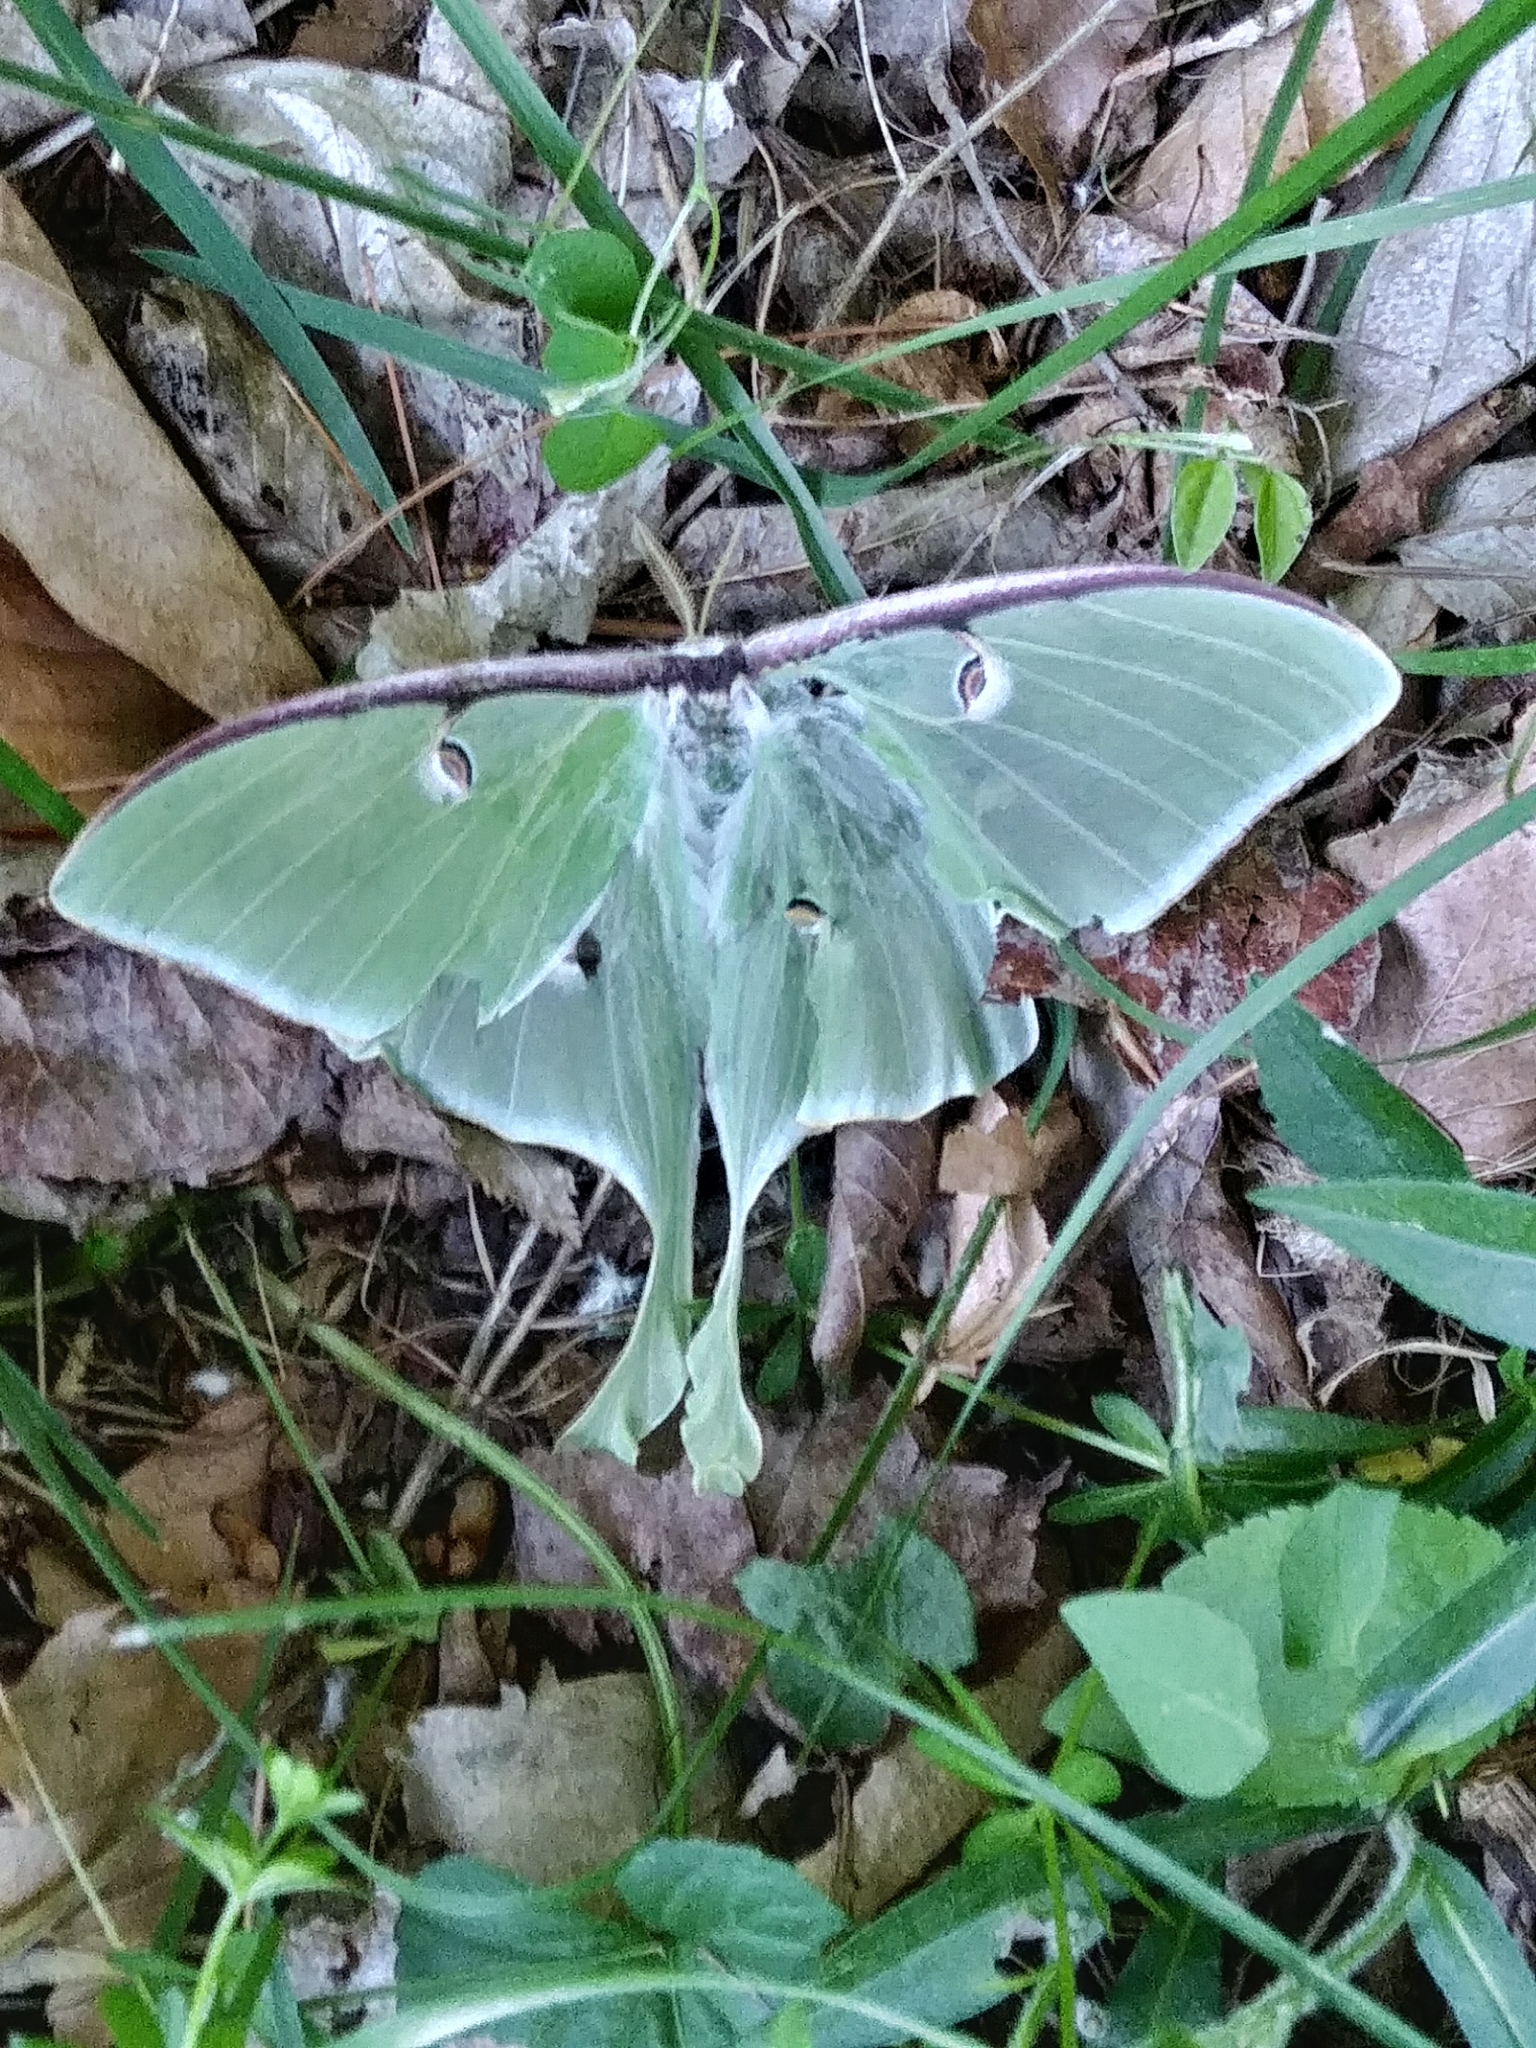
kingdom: Animalia
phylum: Arthropoda
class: Insecta
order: Lepidoptera
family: Saturniidae
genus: Actias
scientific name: Actias luna
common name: Luna moth
